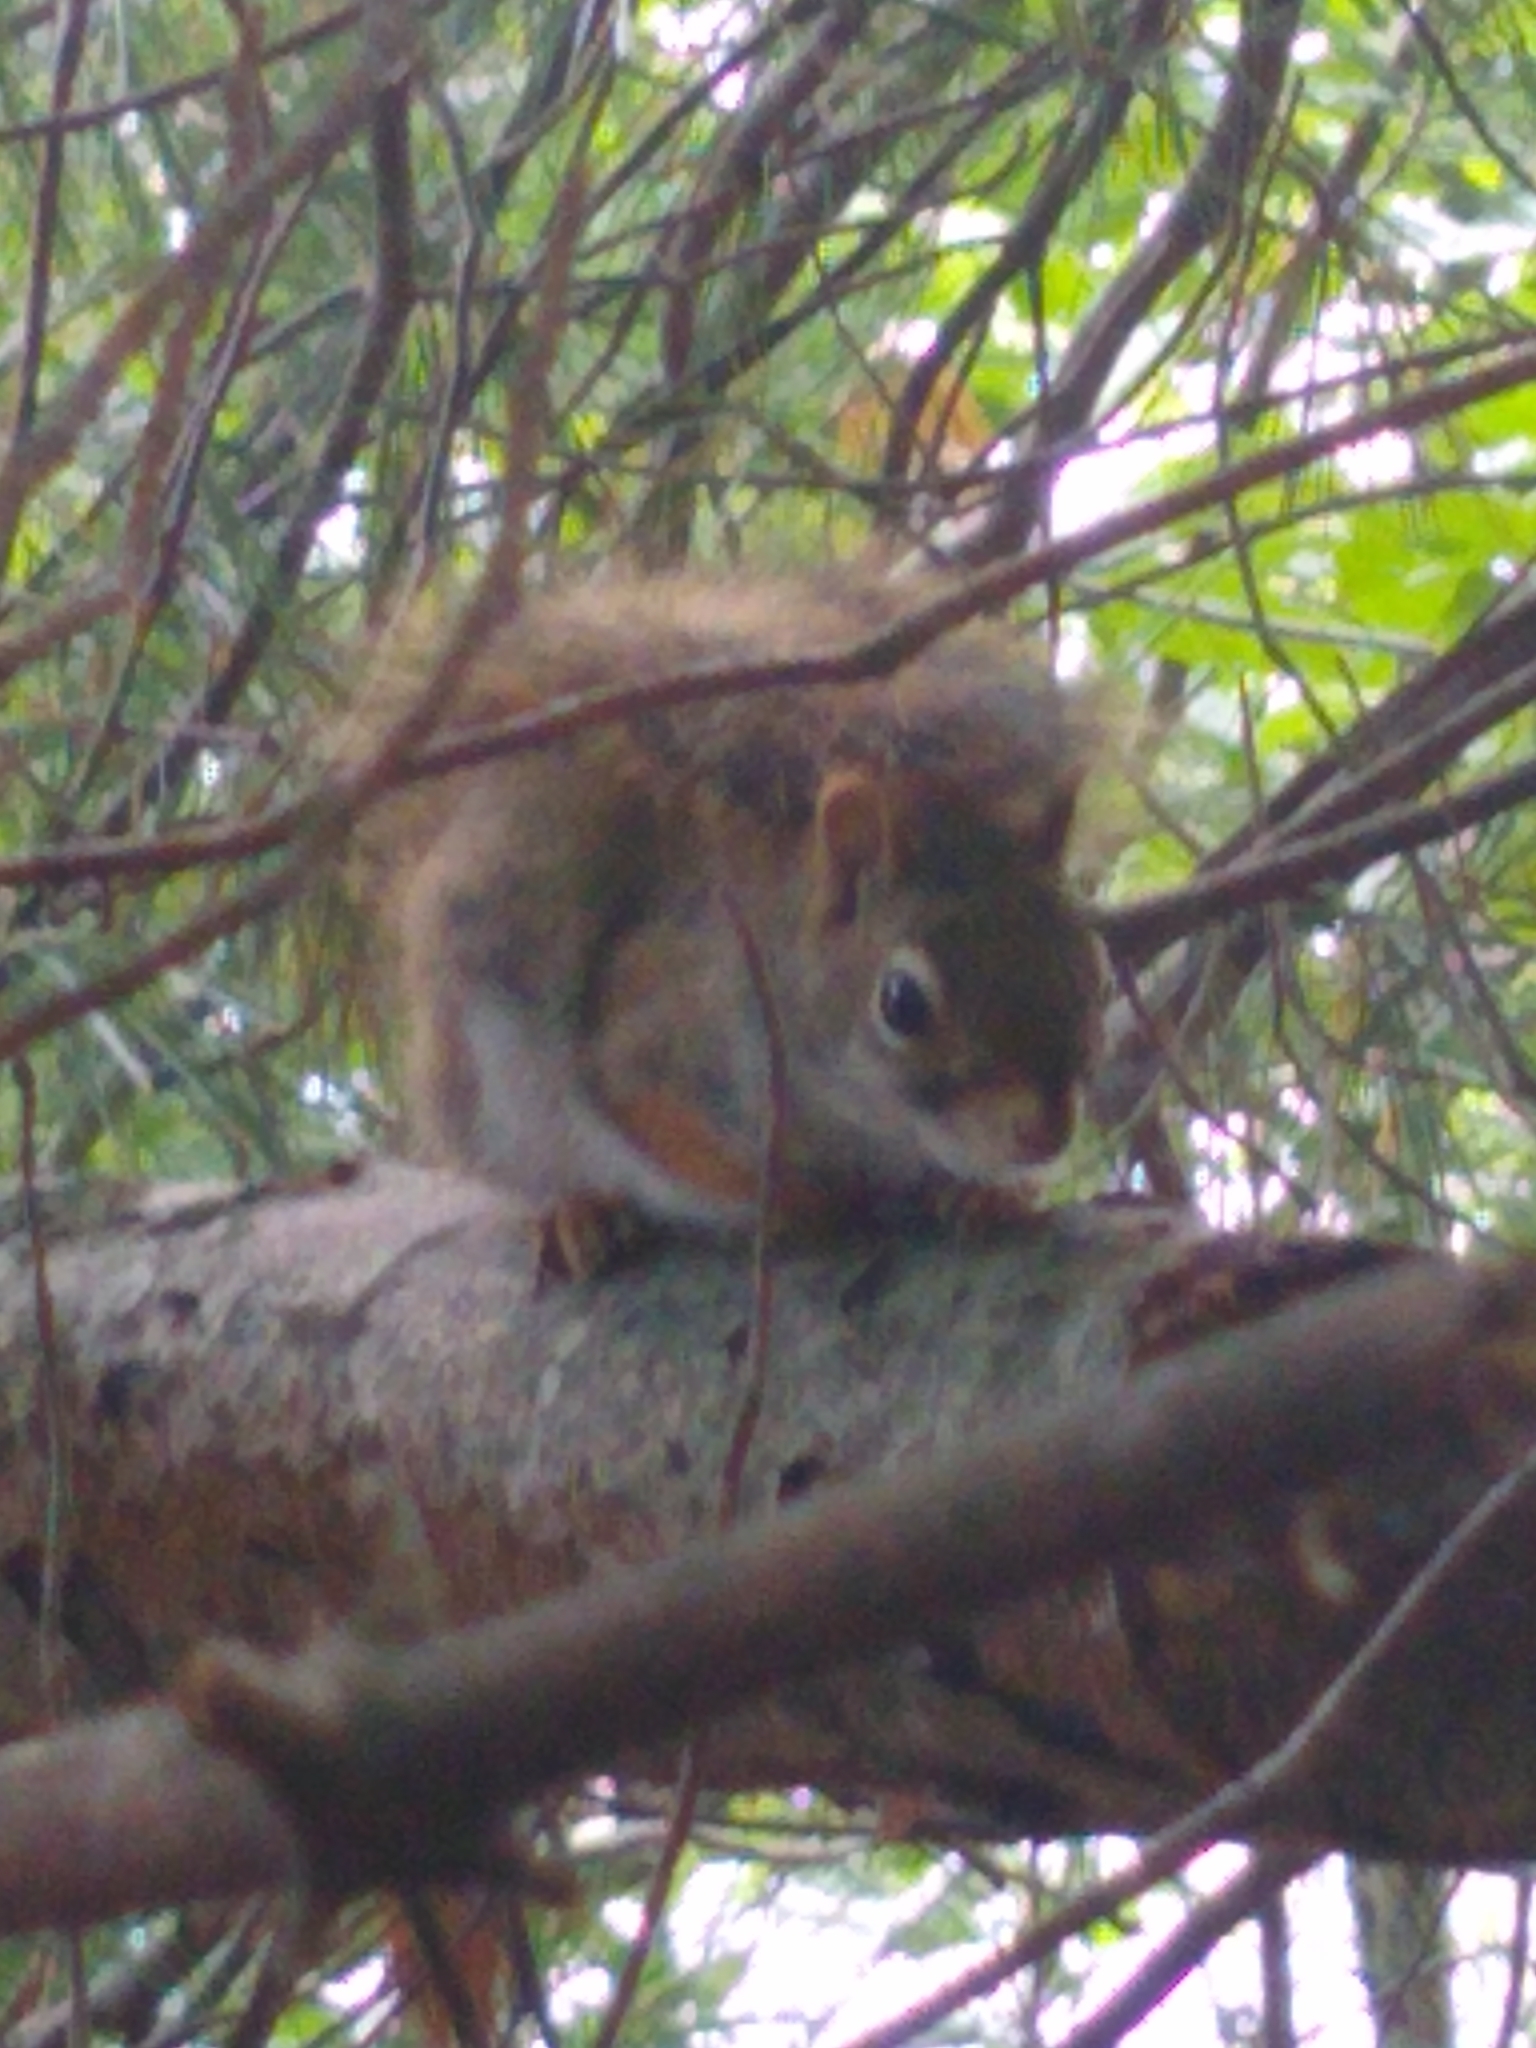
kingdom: Animalia
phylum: Chordata
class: Mammalia
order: Rodentia
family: Sciuridae
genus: Tamiasciurus
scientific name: Tamiasciurus hudsonicus
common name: Red squirrel
